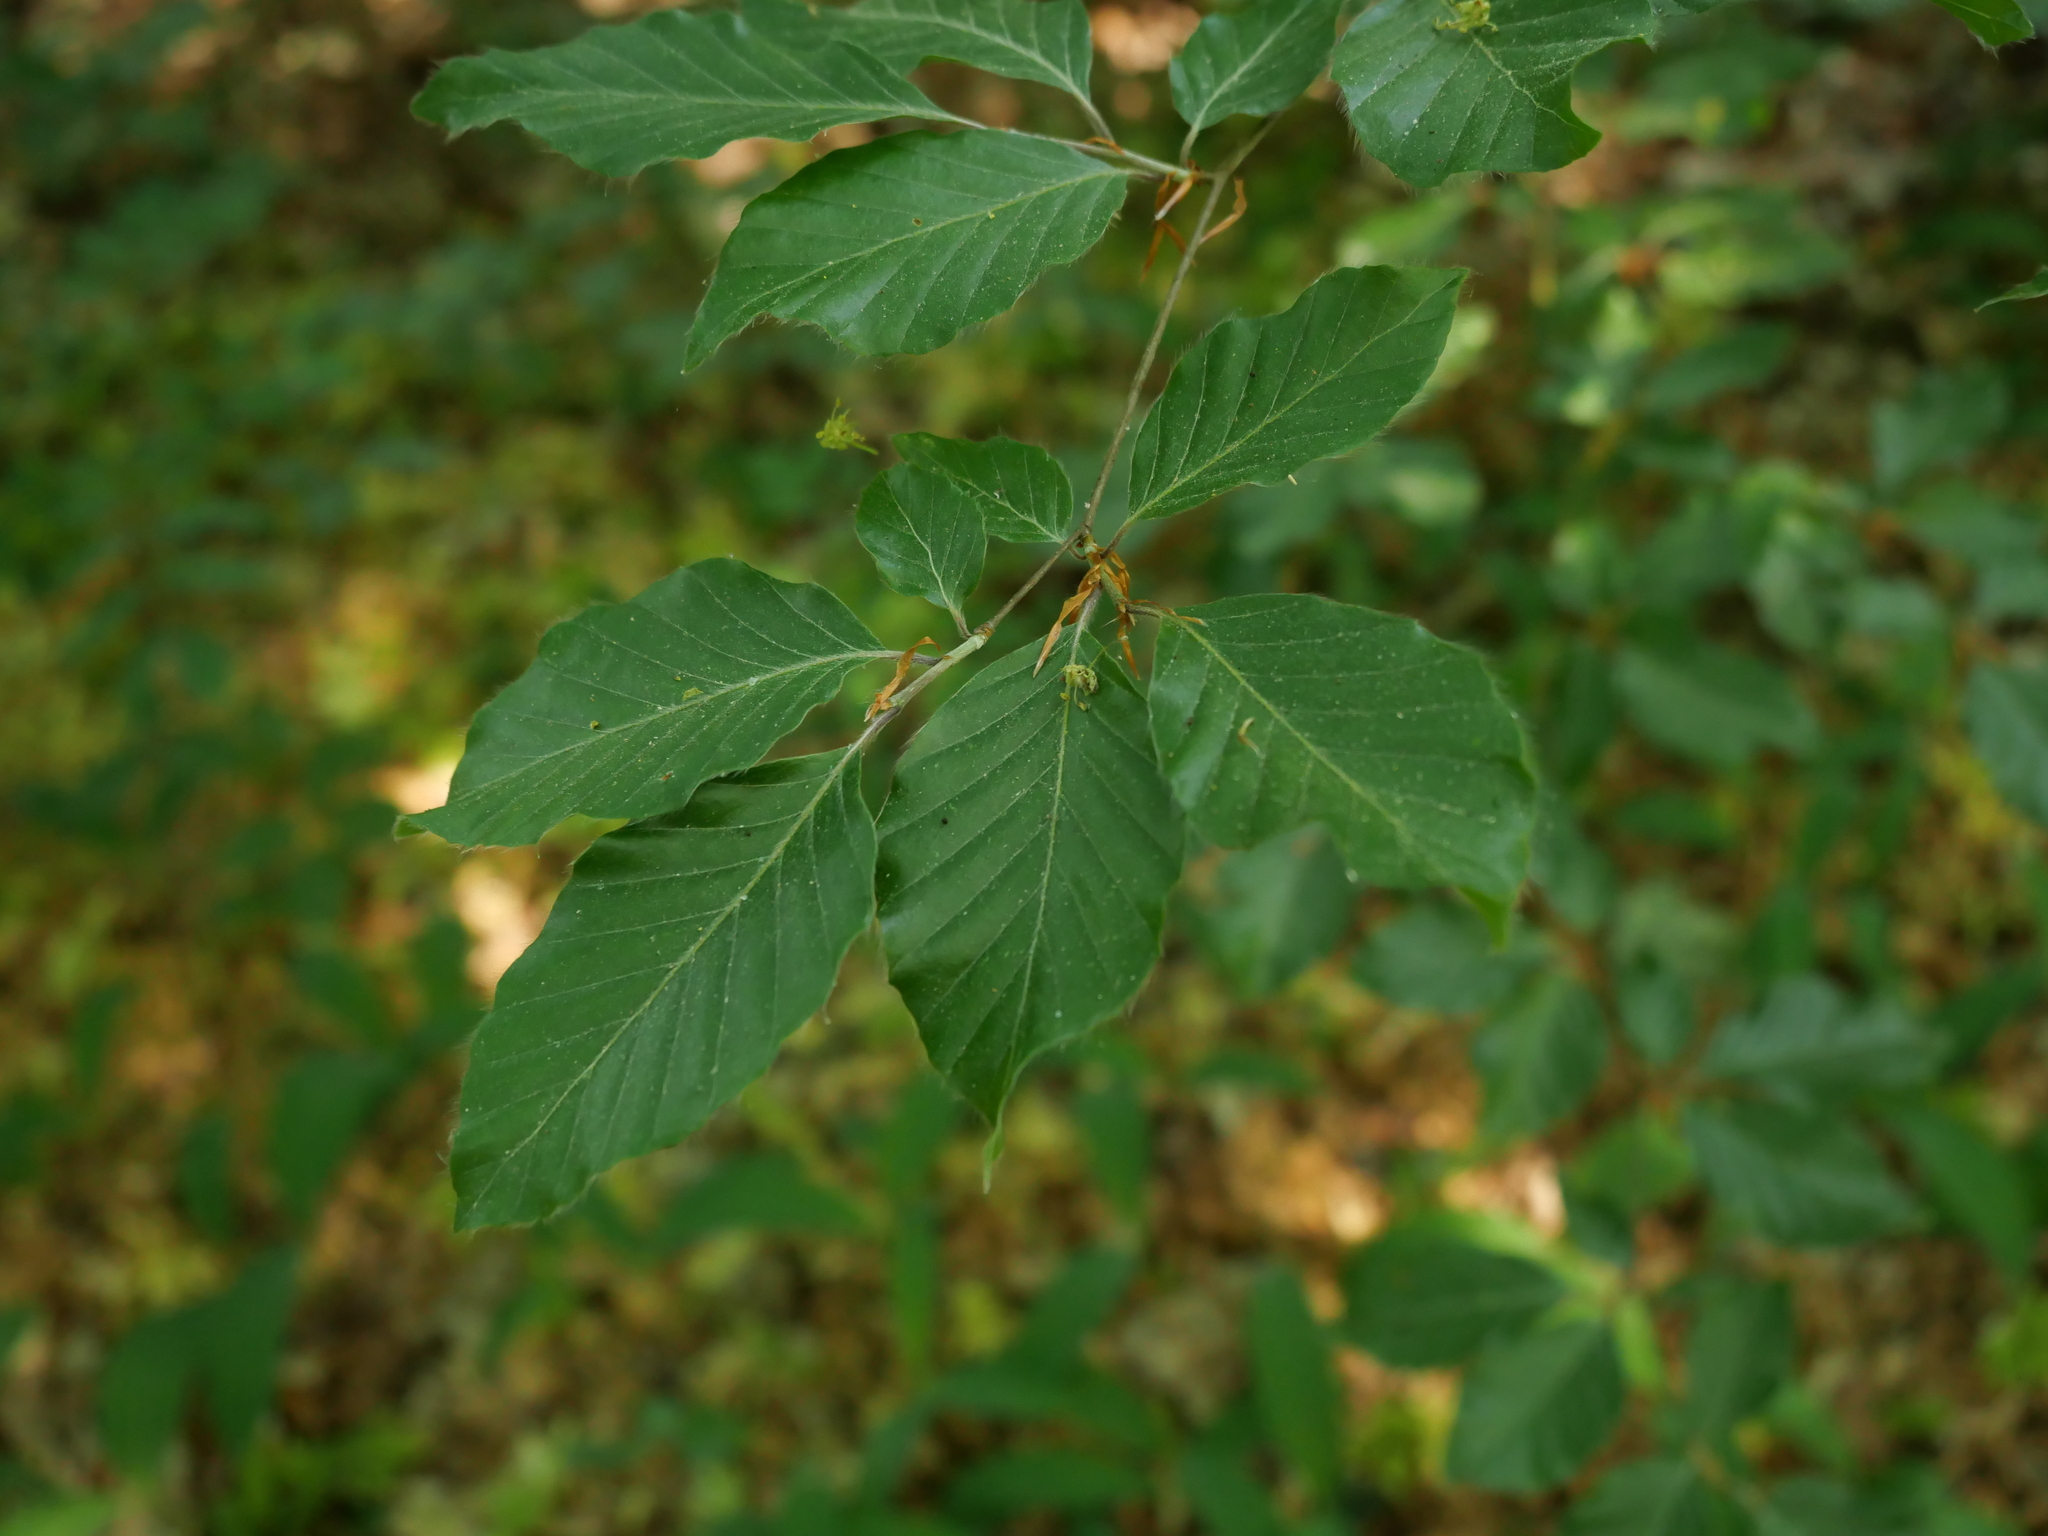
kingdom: Plantae
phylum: Tracheophyta
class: Magnoliopsida
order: Fagales
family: Fagaceae
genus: Fagus
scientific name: Fagus sylvatica
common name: Beech
